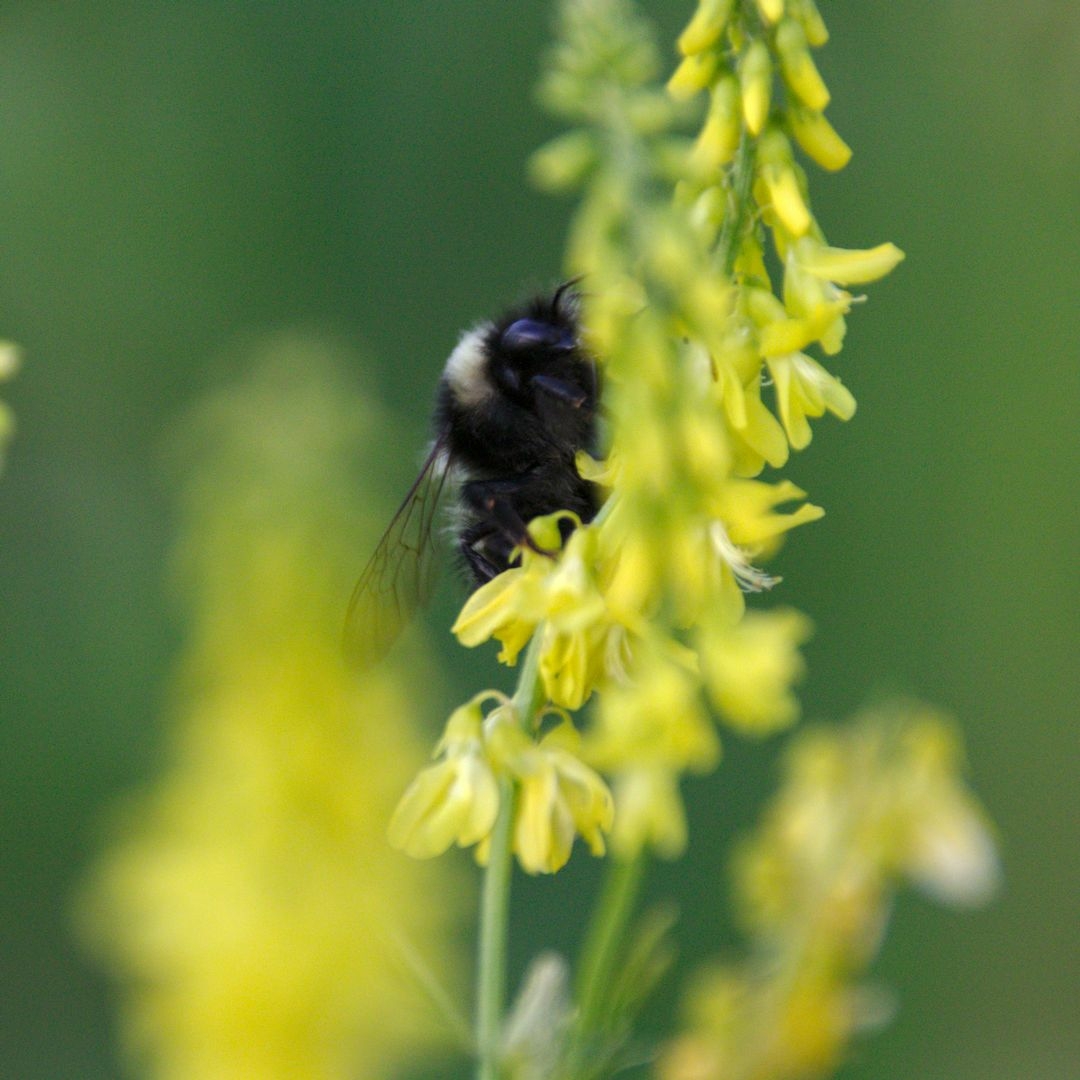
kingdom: Plantae
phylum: Tracheophyta
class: Magnoliopsida
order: Fabales
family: Fabaceae
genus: Melilotus
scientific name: Melilotus officinalis
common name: Sweetclover
